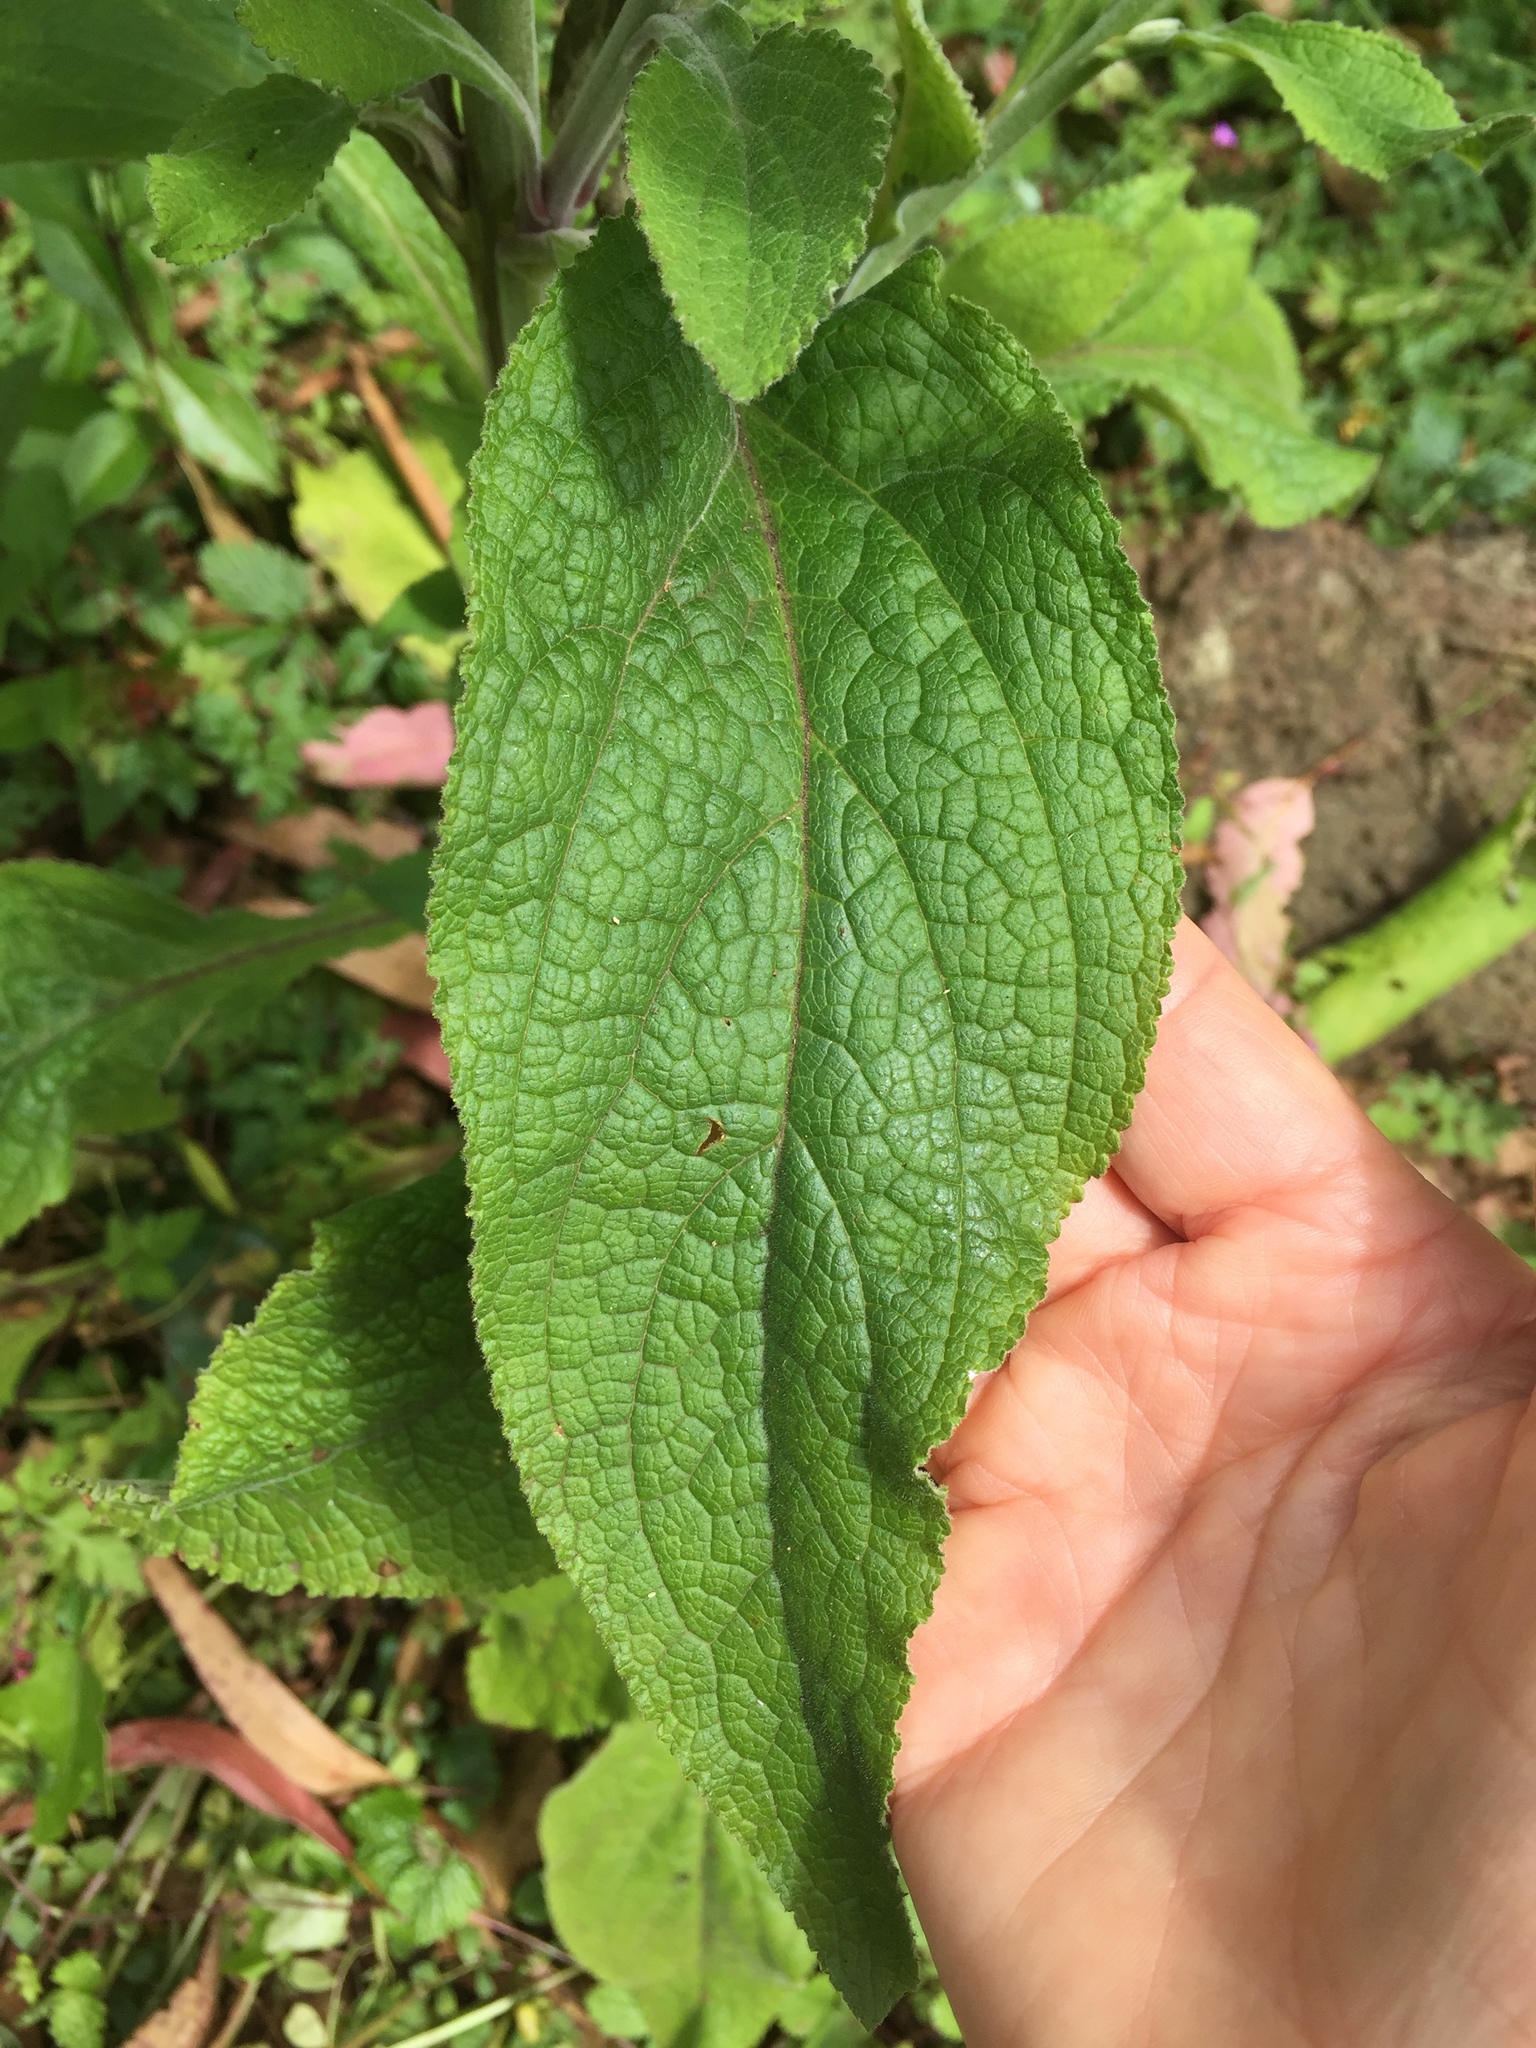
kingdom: Plantae
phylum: Tracheophyta
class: Magnoliopsida
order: Lamiales
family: Plantaginaceae
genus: Digitalis
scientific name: Digitalis purpurea
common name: Foxglove
